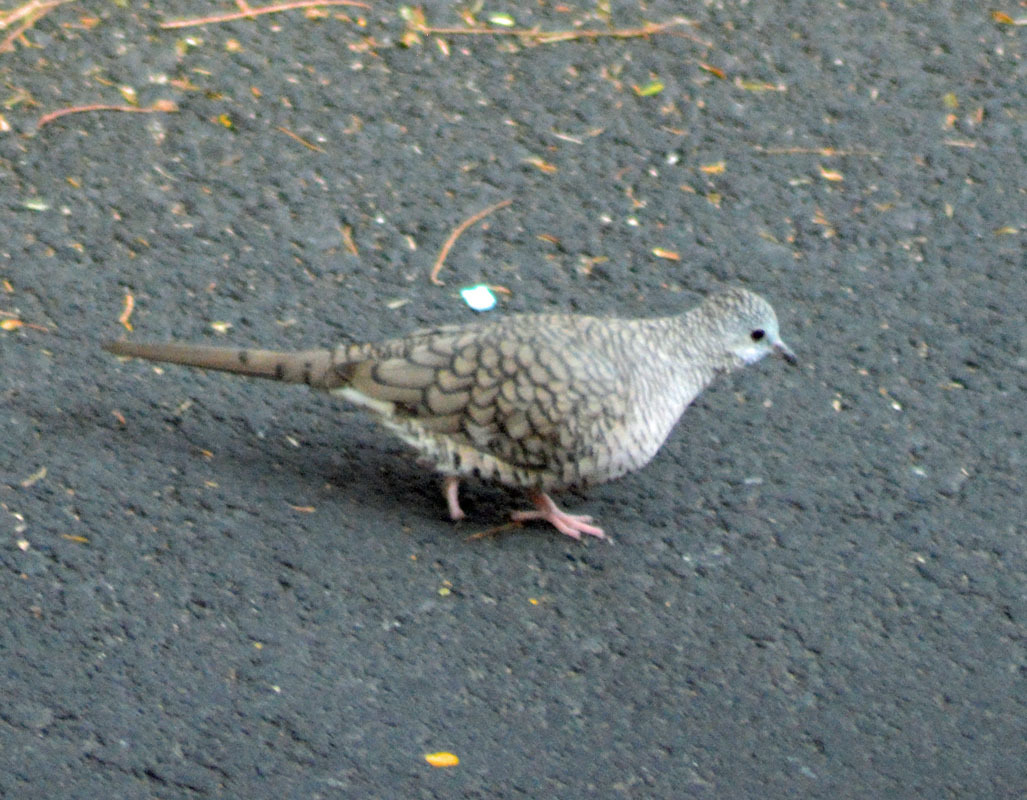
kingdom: Animalia
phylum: Chordata
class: Aves
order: Columbiformes
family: Columbidae
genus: Columbina
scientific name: Columbina inca
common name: Inca dove
